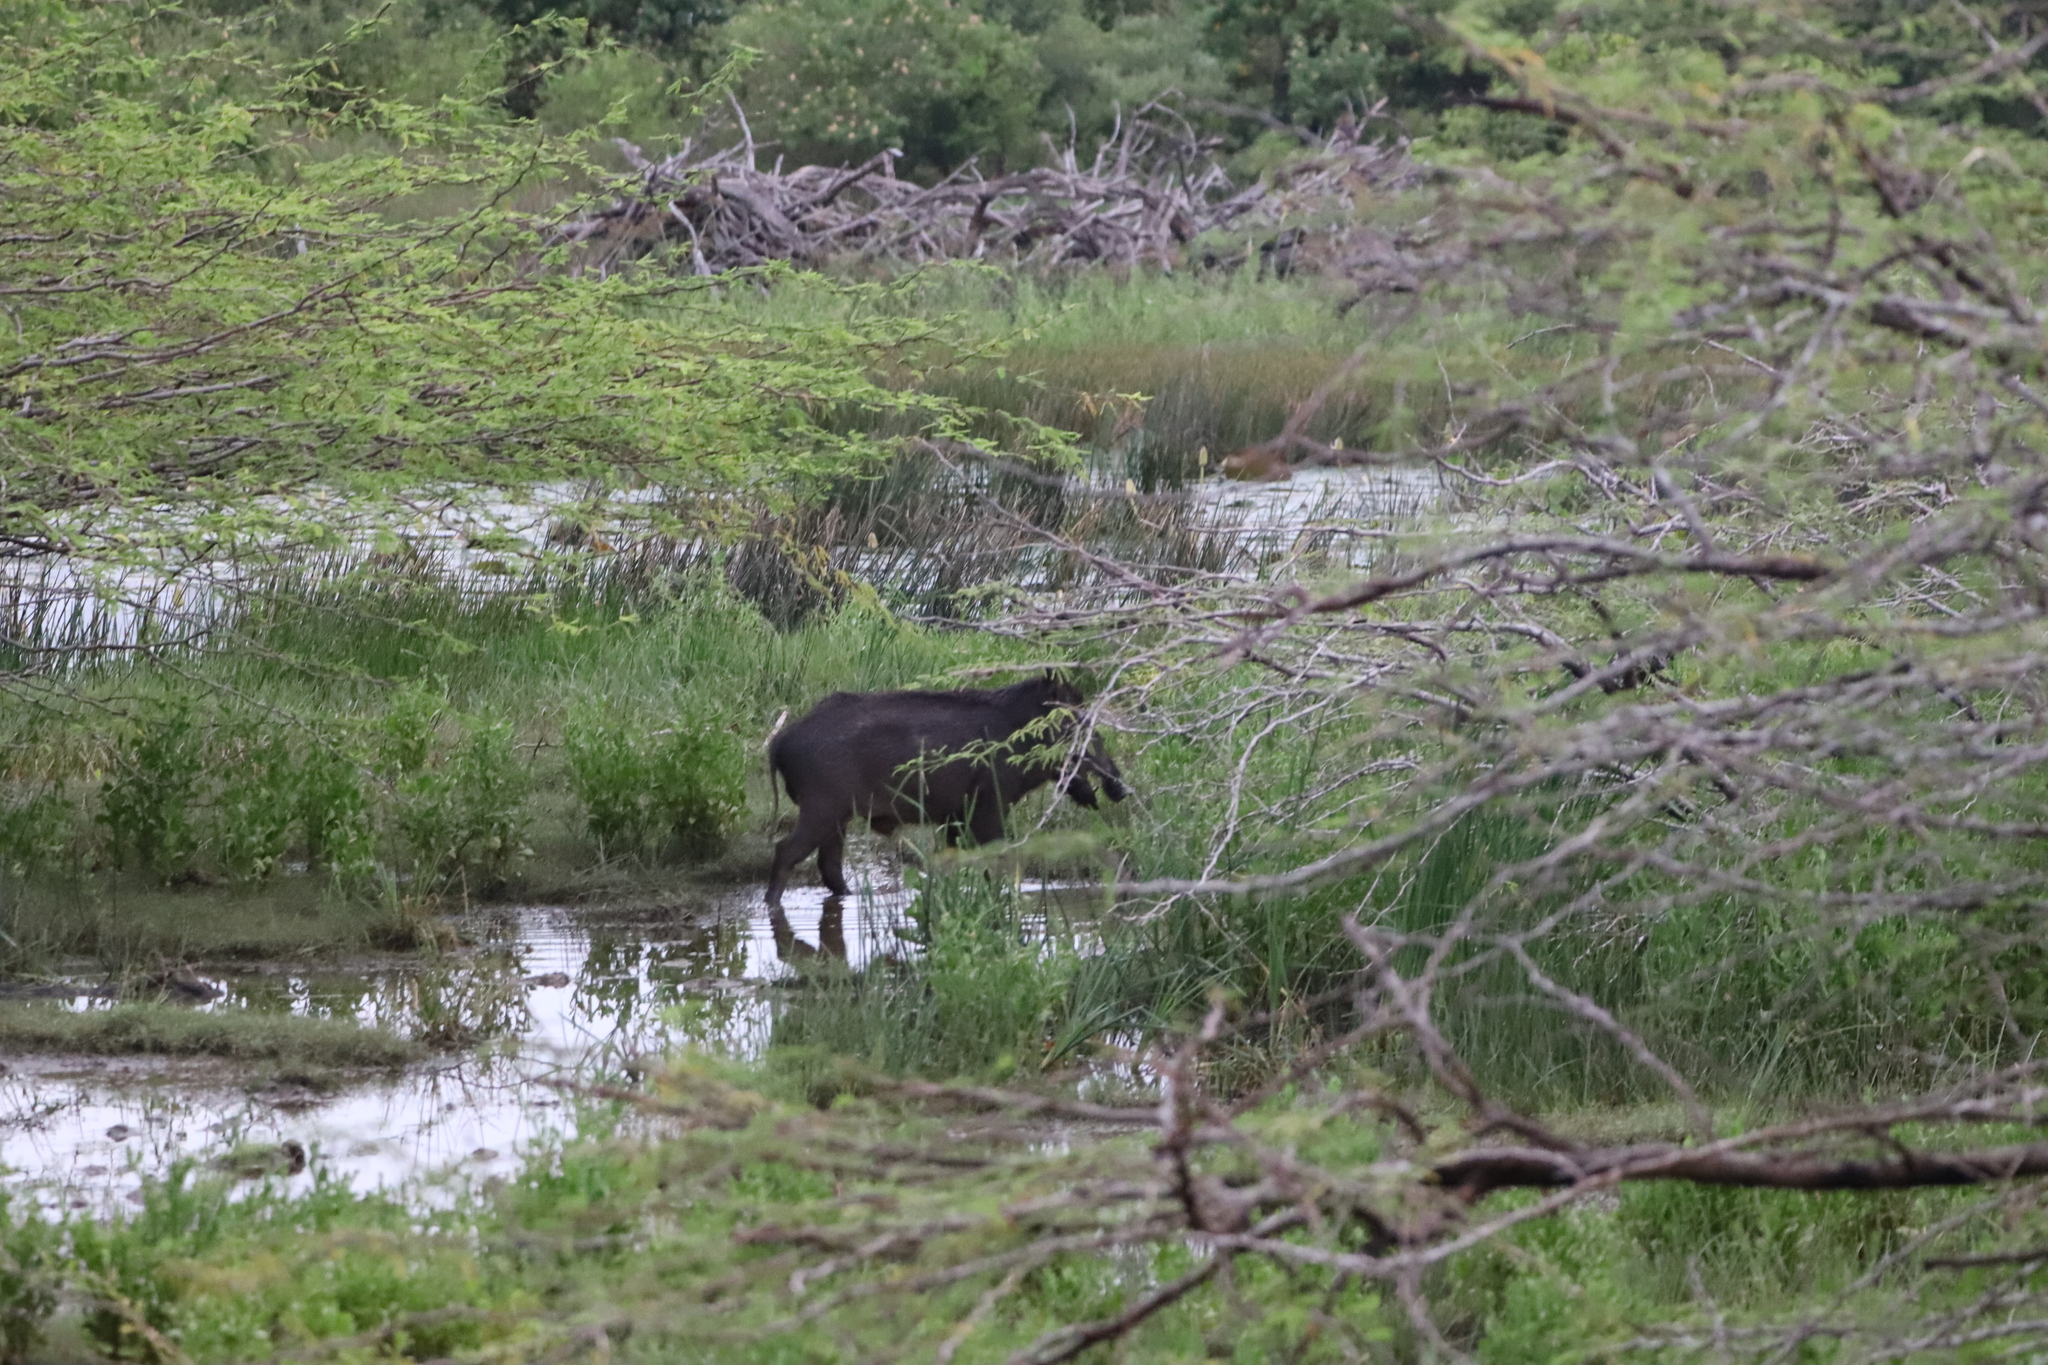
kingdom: Animalia
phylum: Chordata
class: Mammalia
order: Artiodactyla
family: Suidae
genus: Sus
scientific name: Sus scrofa
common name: Wild boar
